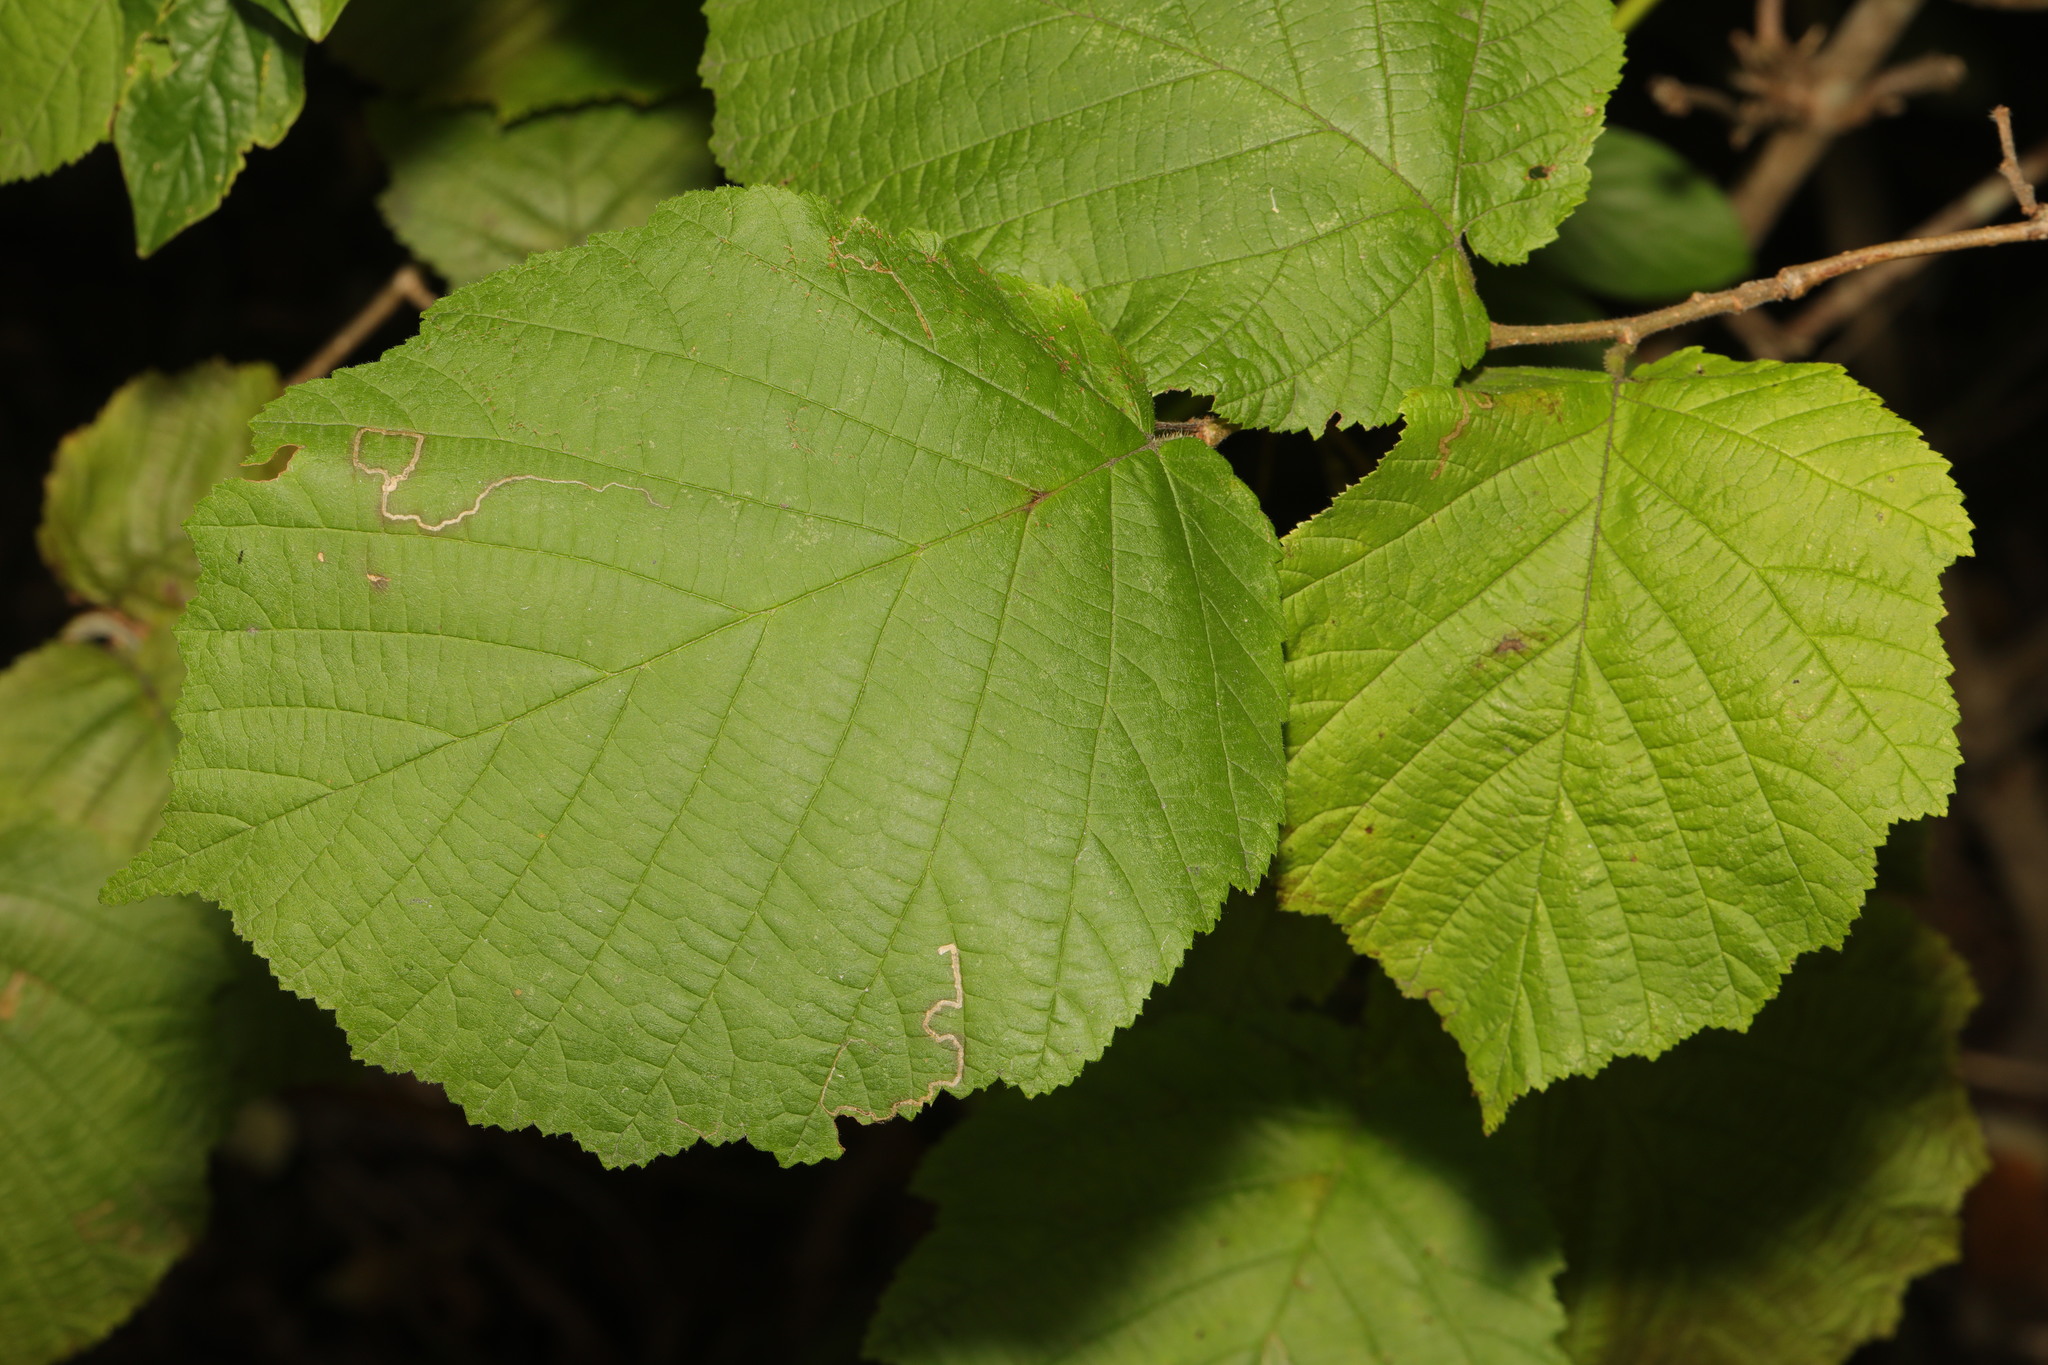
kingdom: Plantae
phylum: Tracheophyta
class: Magnoliopsida
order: Fagales
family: Betulaceae
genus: Corylus
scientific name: Corylus avellana
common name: European hazel
